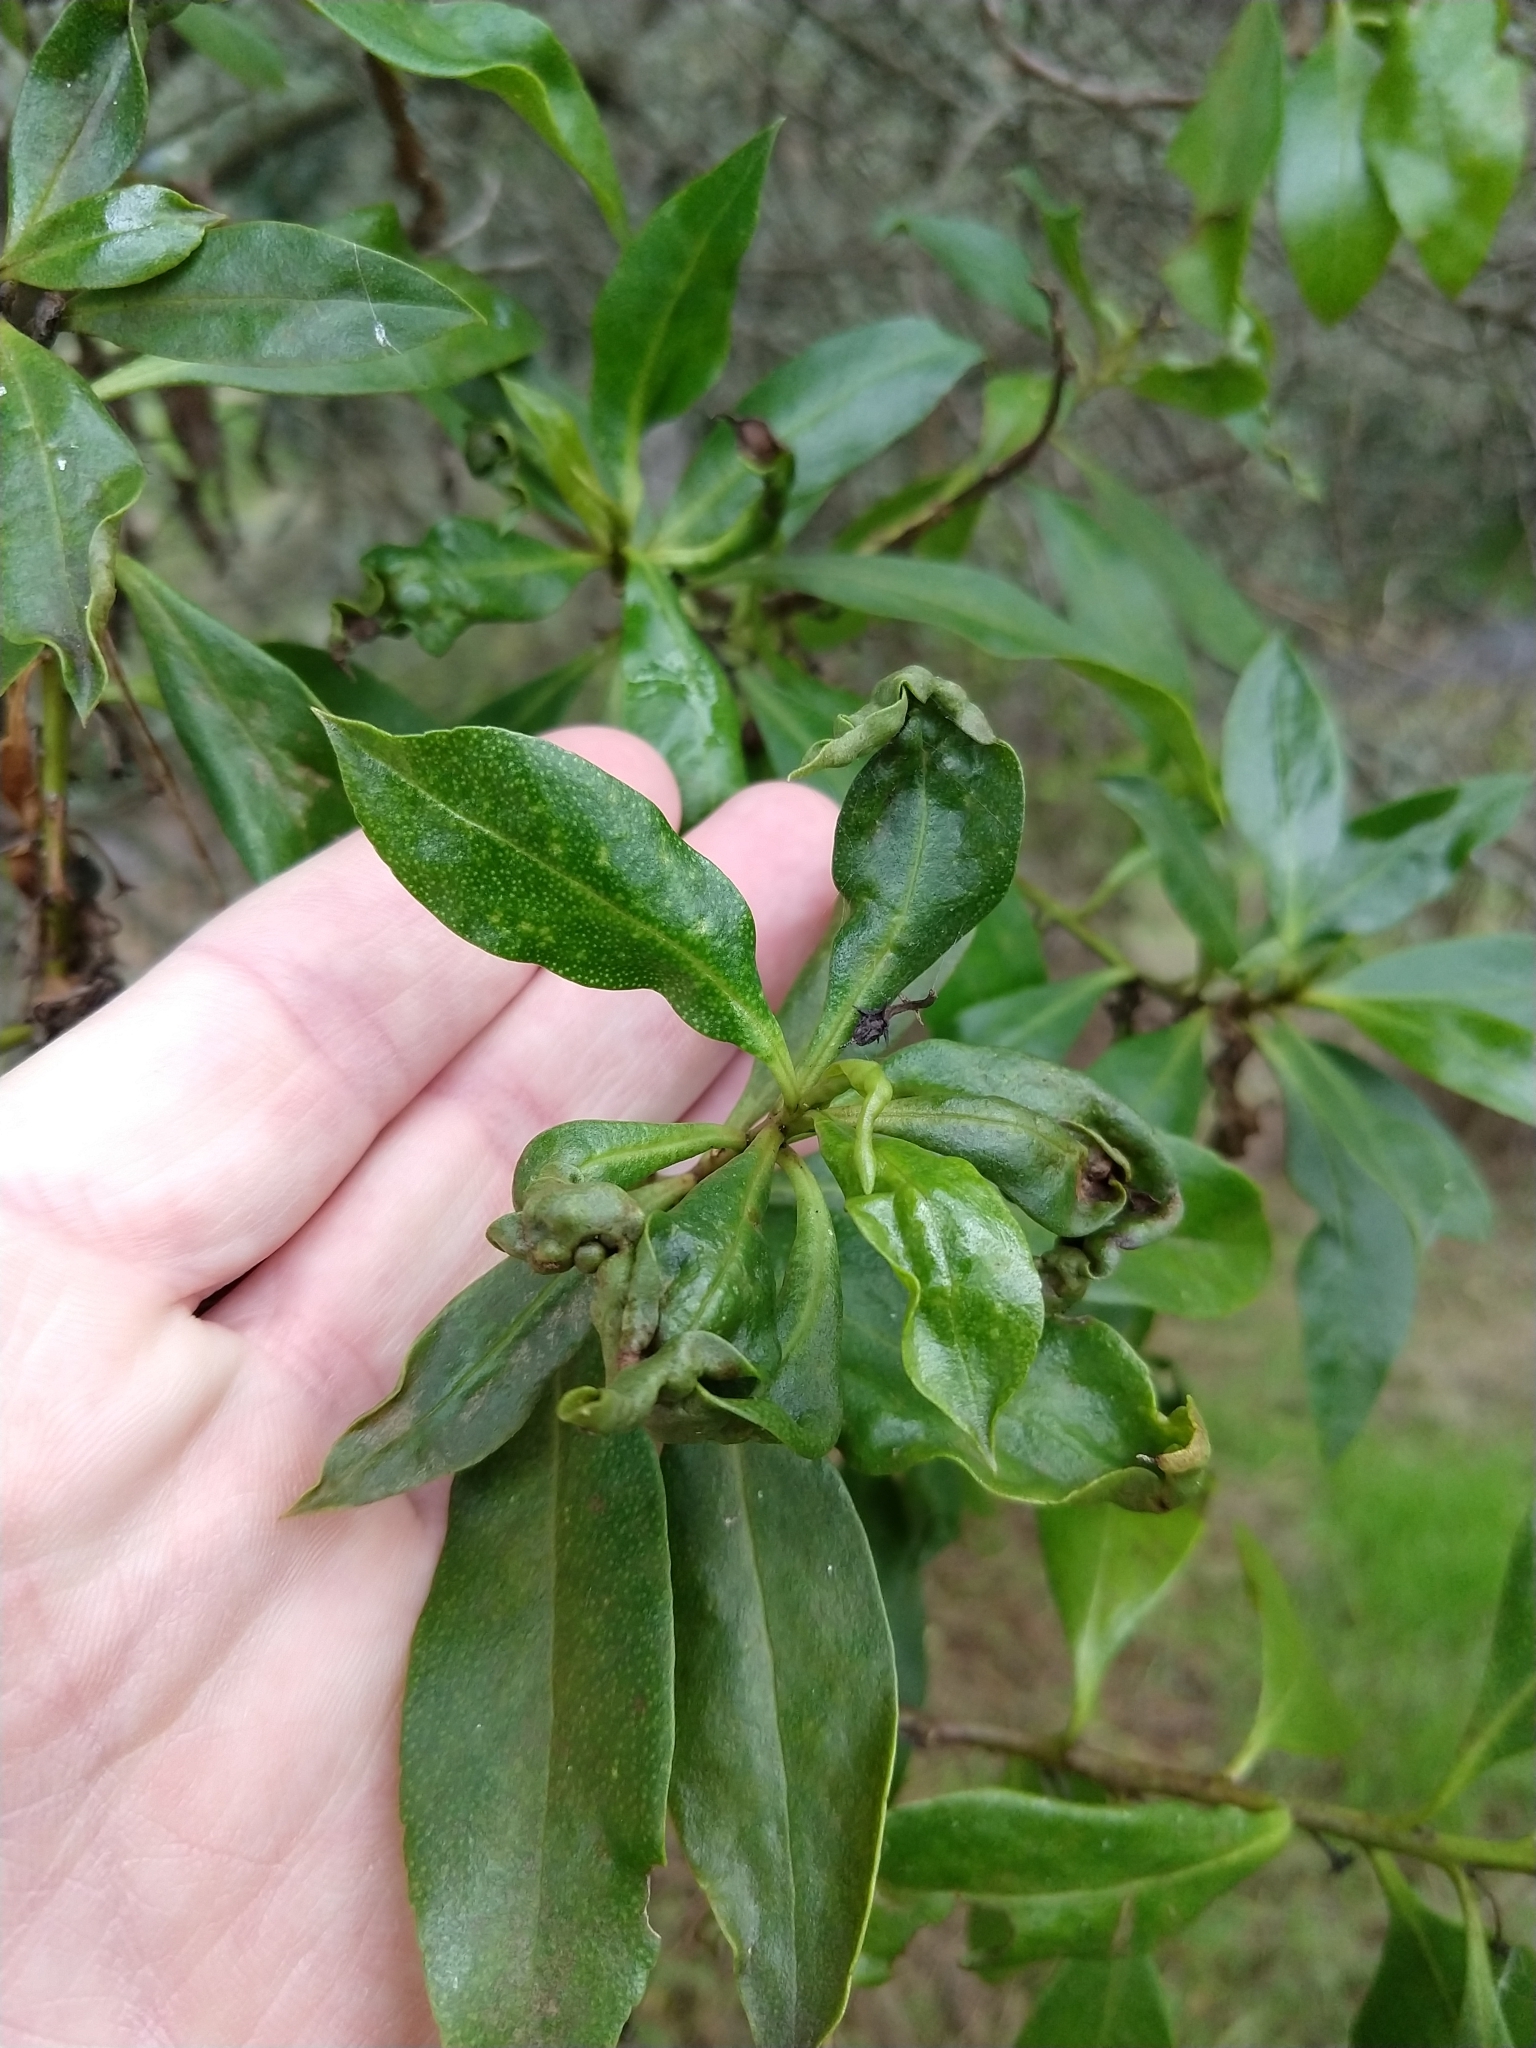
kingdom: Animalia
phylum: Arthropoda
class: Insecta
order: Thysanoptera
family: Phlaeothripidae
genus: Klambothrips
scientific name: Klambothrips myopori
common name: Myoporum thrips
